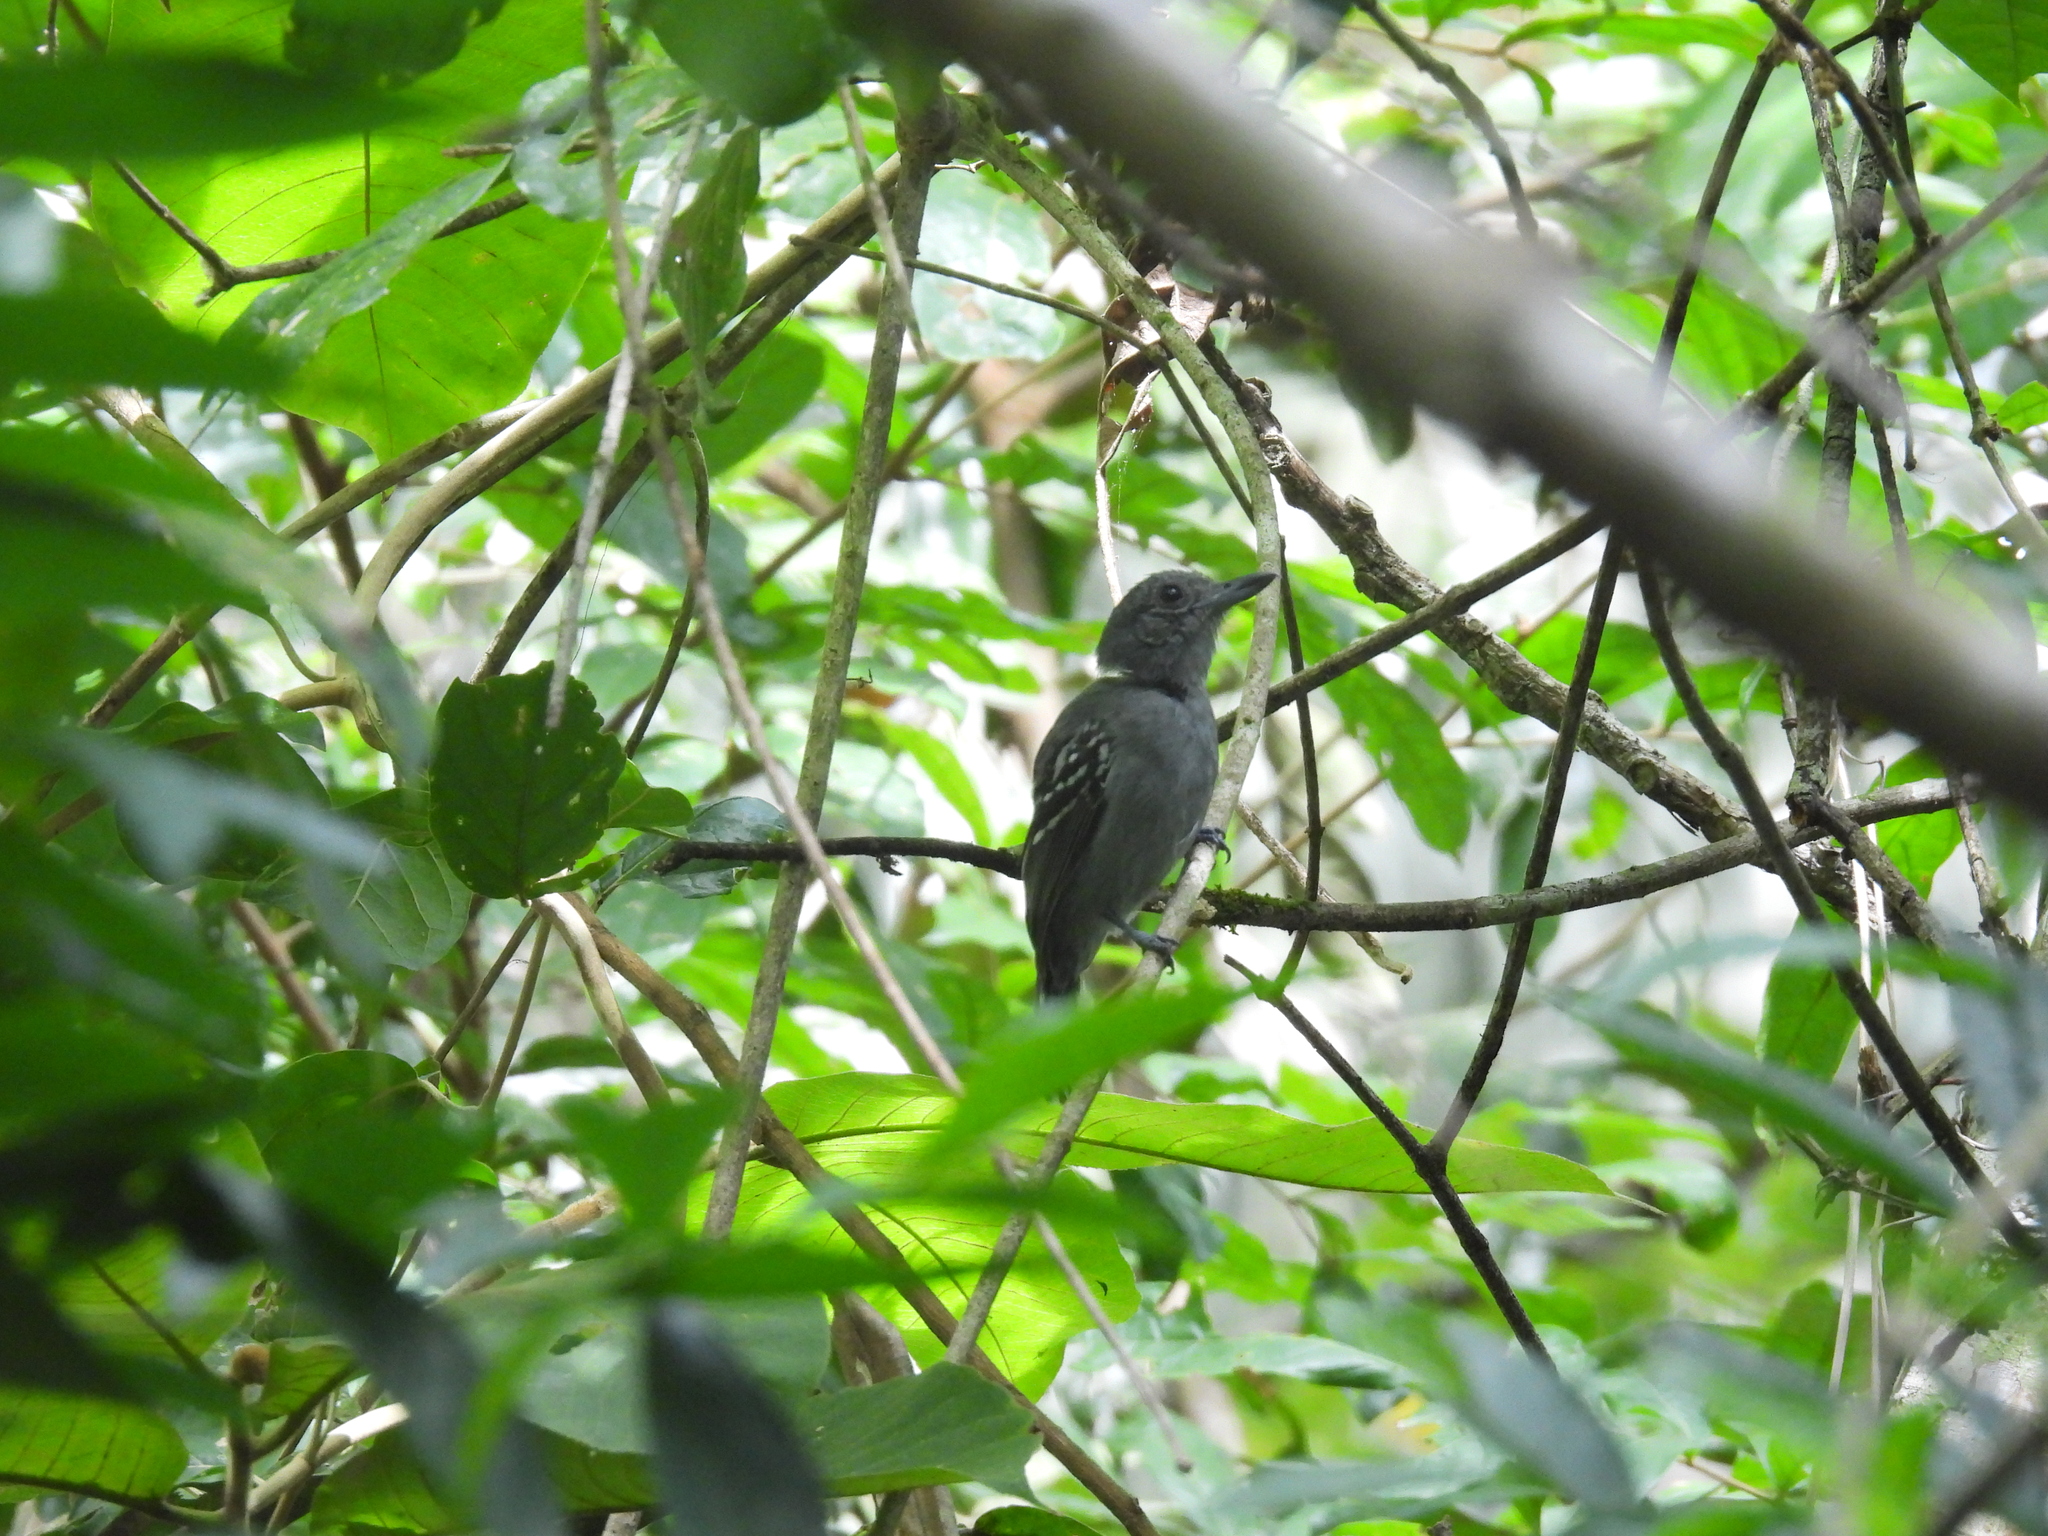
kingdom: Animalia
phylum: Chordata
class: Aves
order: Passeriformes
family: Thamnophilidae
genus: Thamnophilus
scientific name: Thamnophilus atrinucha
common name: Black-crowned antshrike
